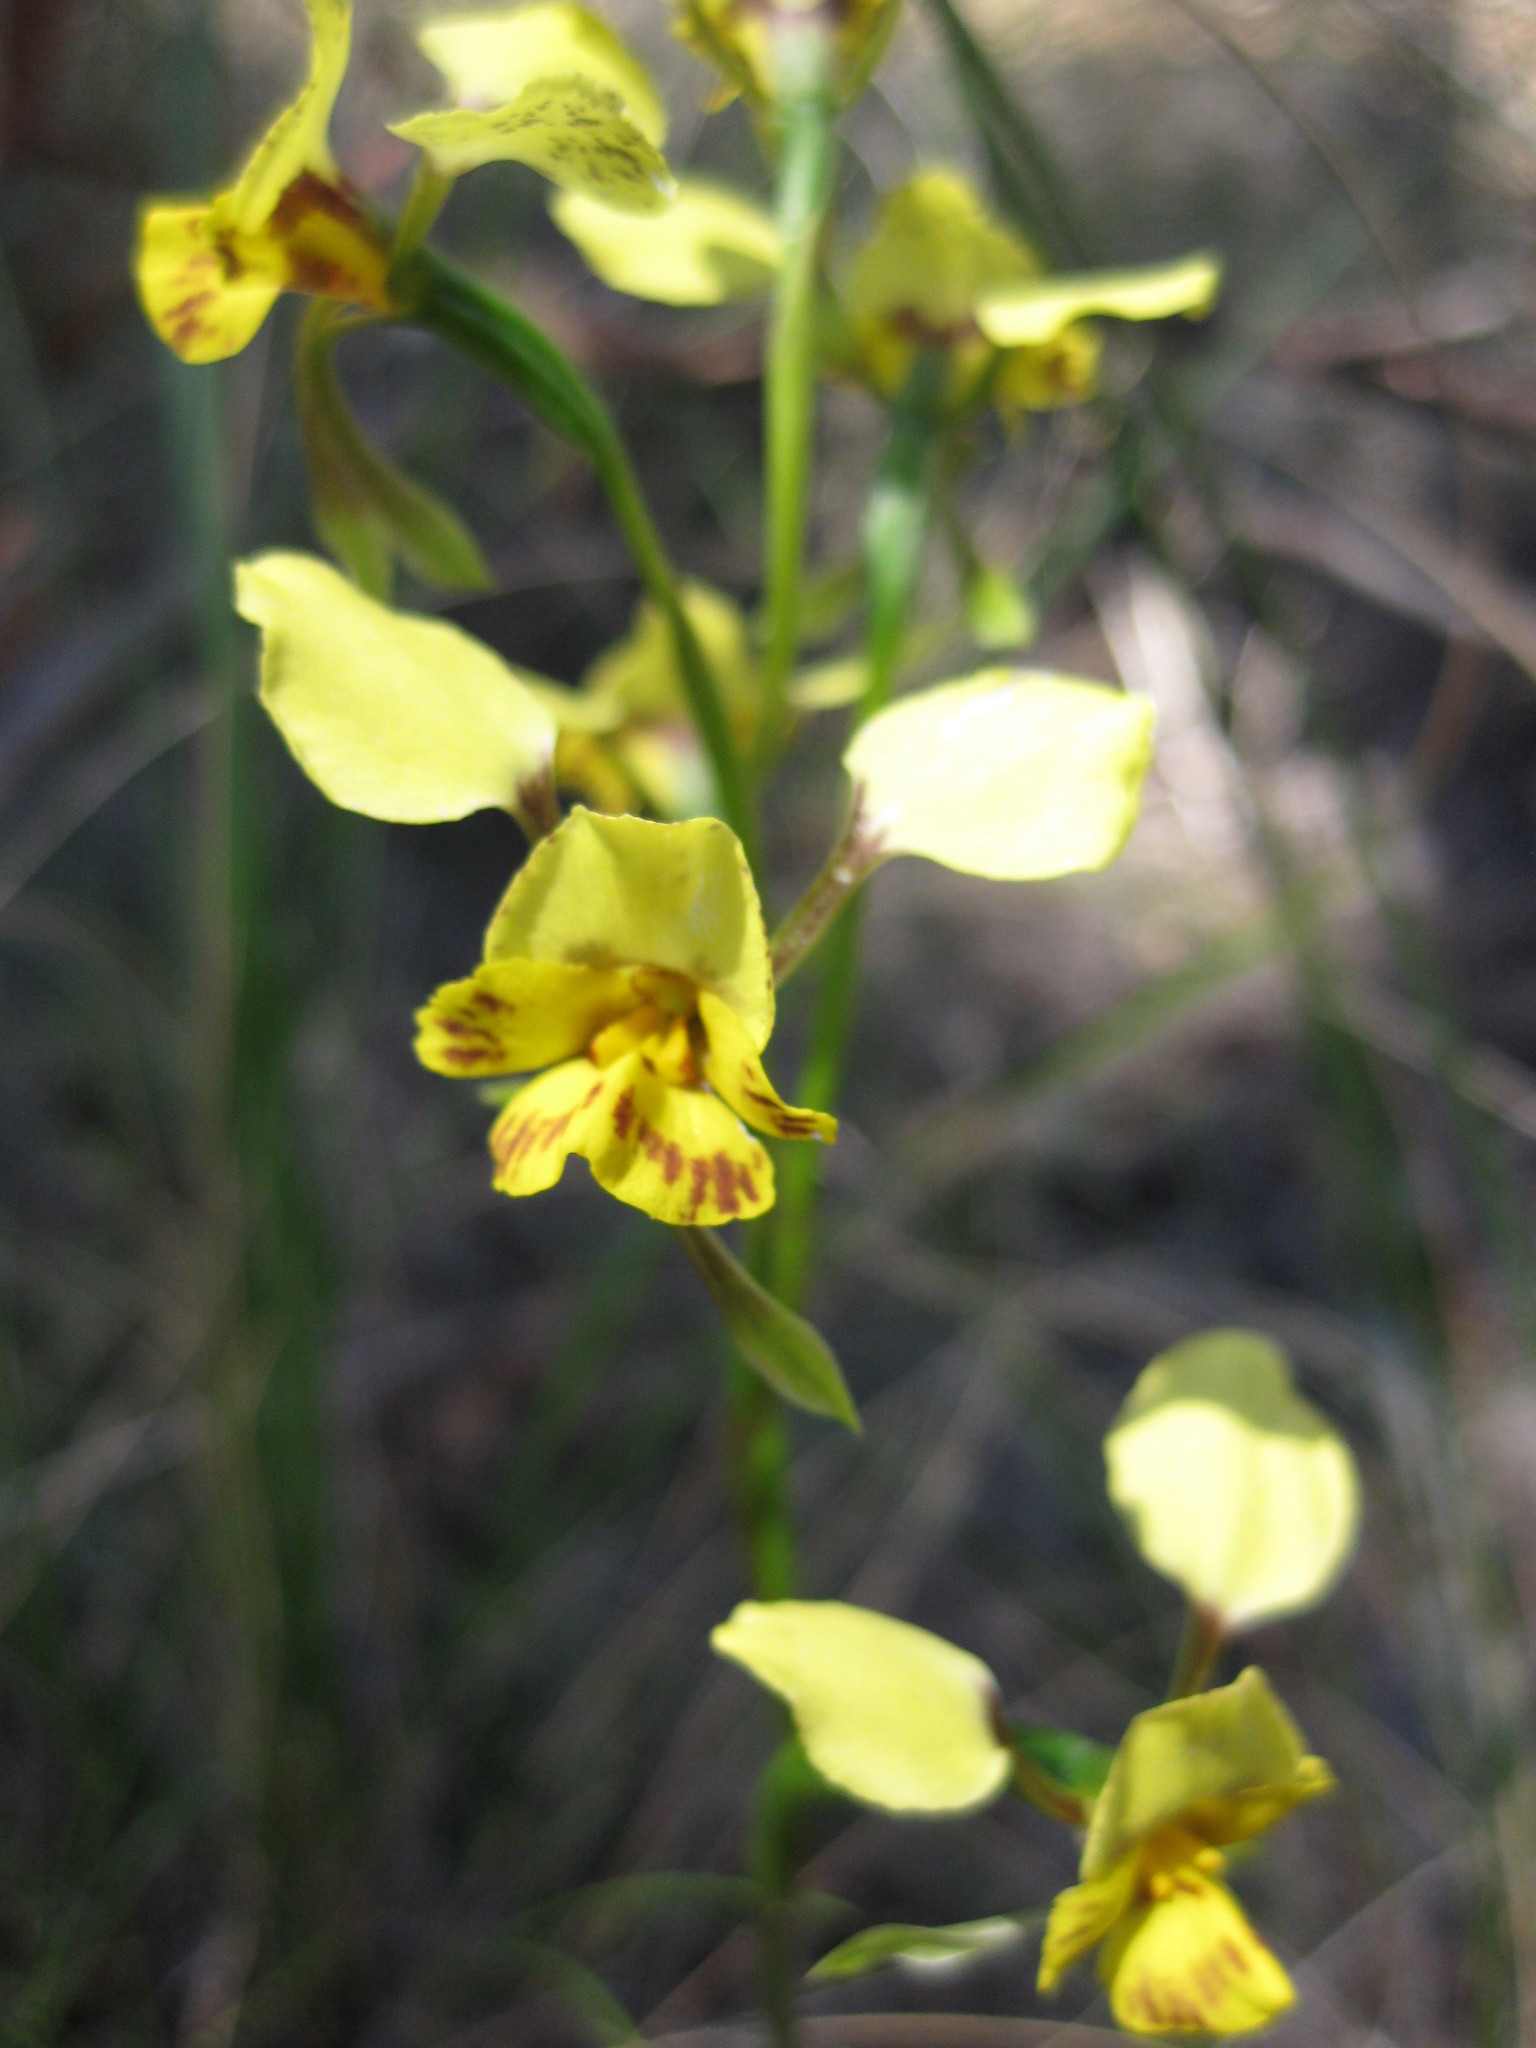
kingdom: Plantae
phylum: Tracheophyta
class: Liliopsida
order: Asparagales
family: Orchidaceae
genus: Diuris
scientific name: Diuris nigromontana
